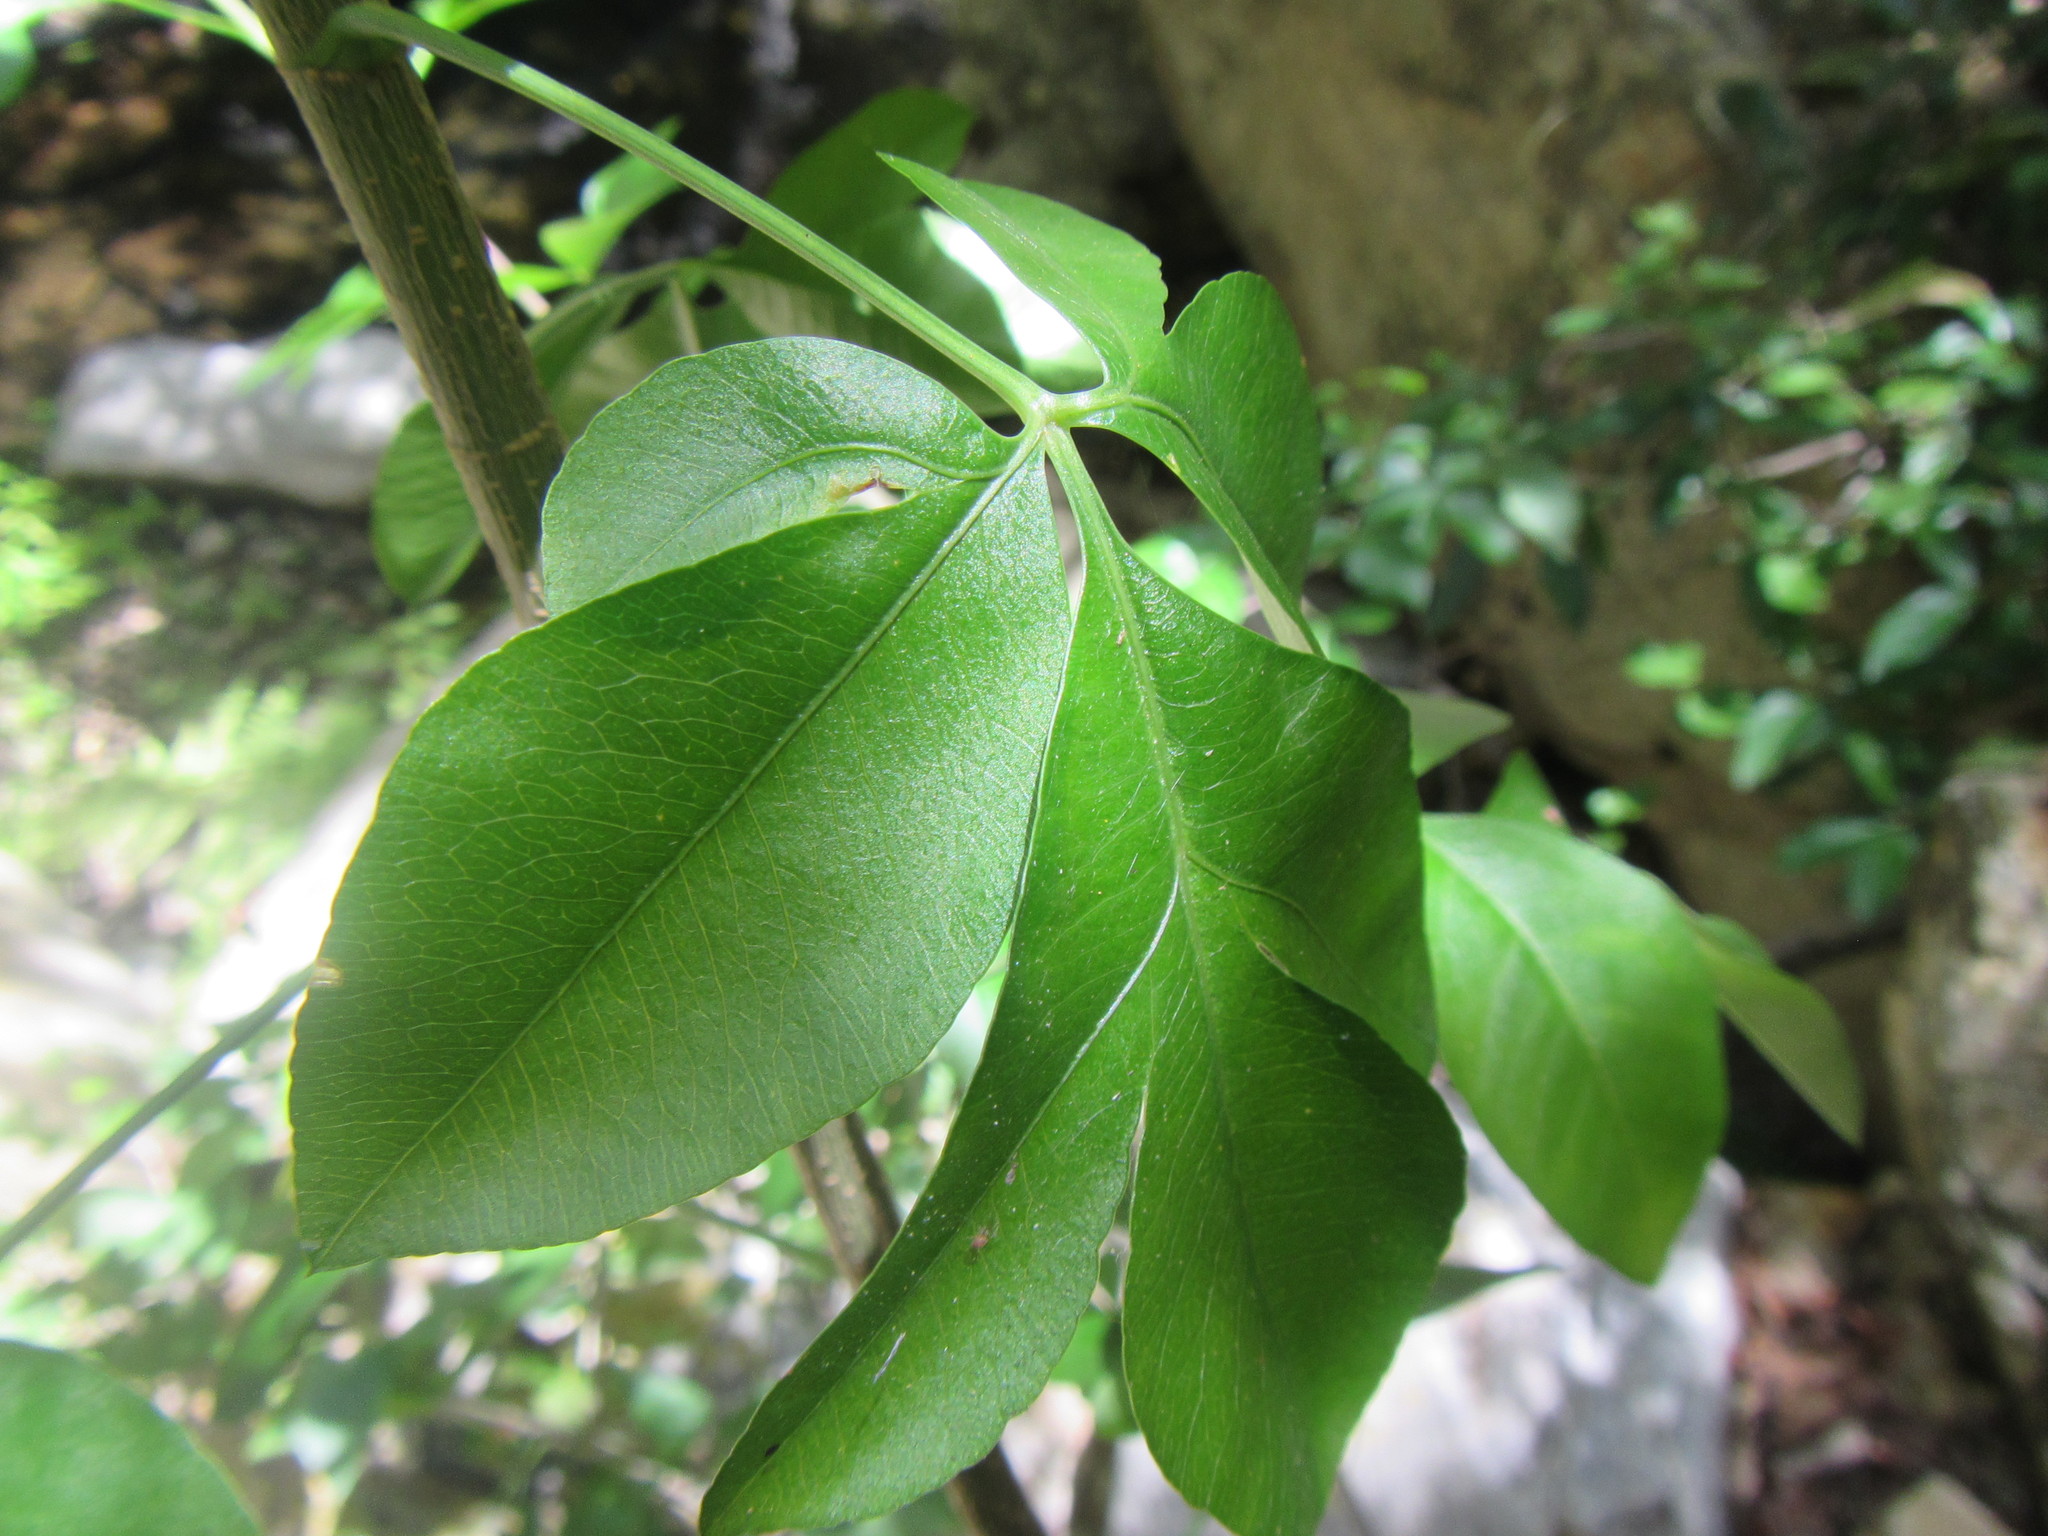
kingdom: Plantae
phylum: Tracheophyta
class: Magnoliopsida
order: Apiales
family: Apiaceae
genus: Heteromorpha
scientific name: Heteromorpha arborescens
